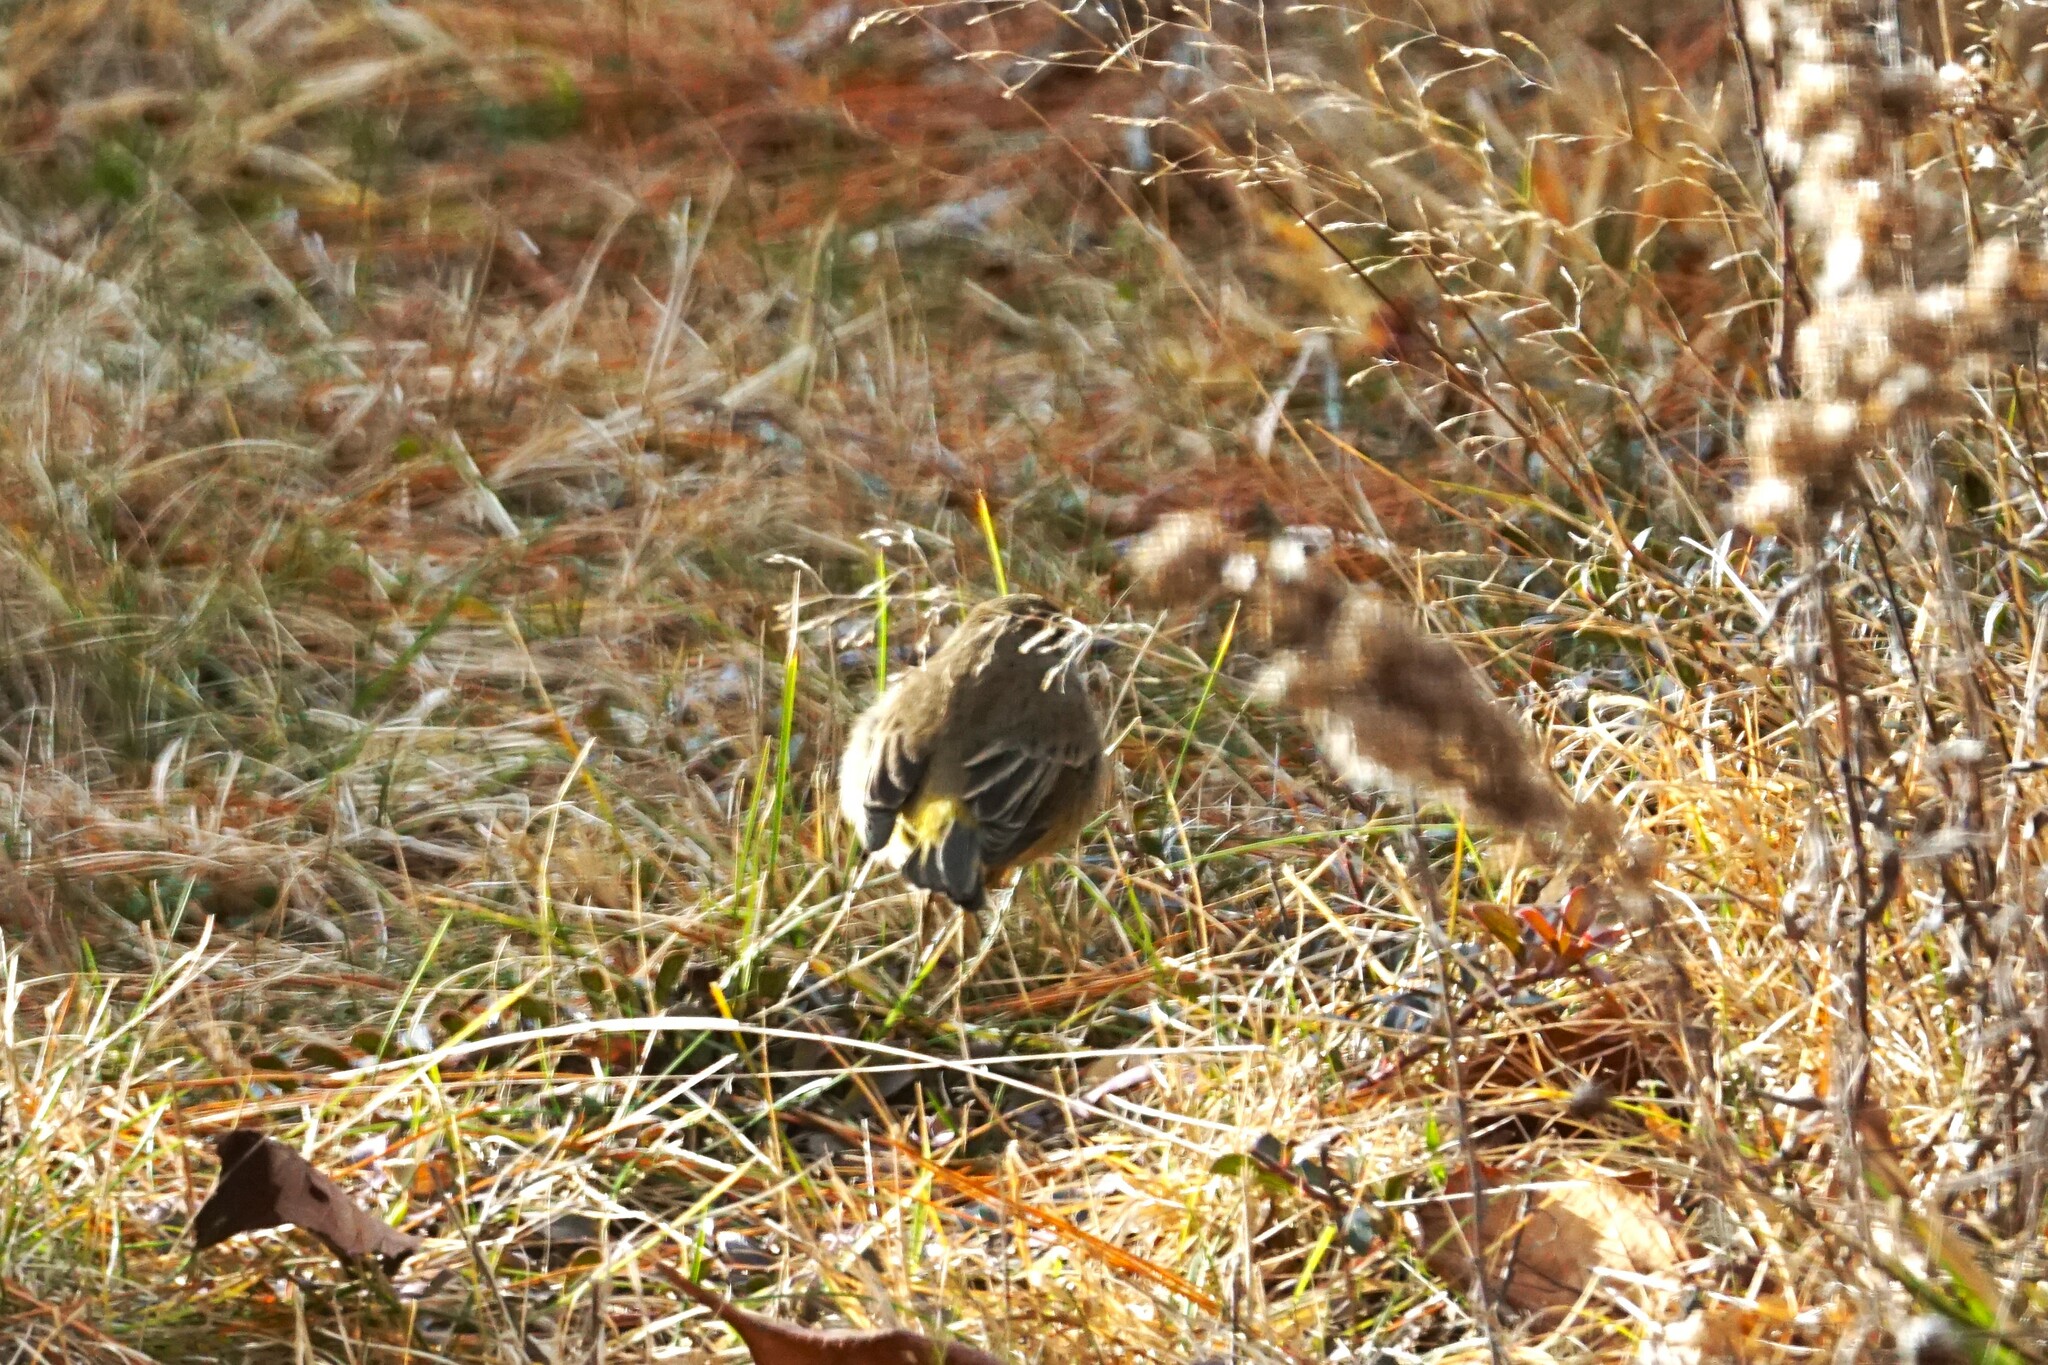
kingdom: Animalia
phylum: Chordata
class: Aves
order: Passeriformes
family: Parulidae
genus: Setophaga
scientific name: Setophaga palmarum
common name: Palm warbler
